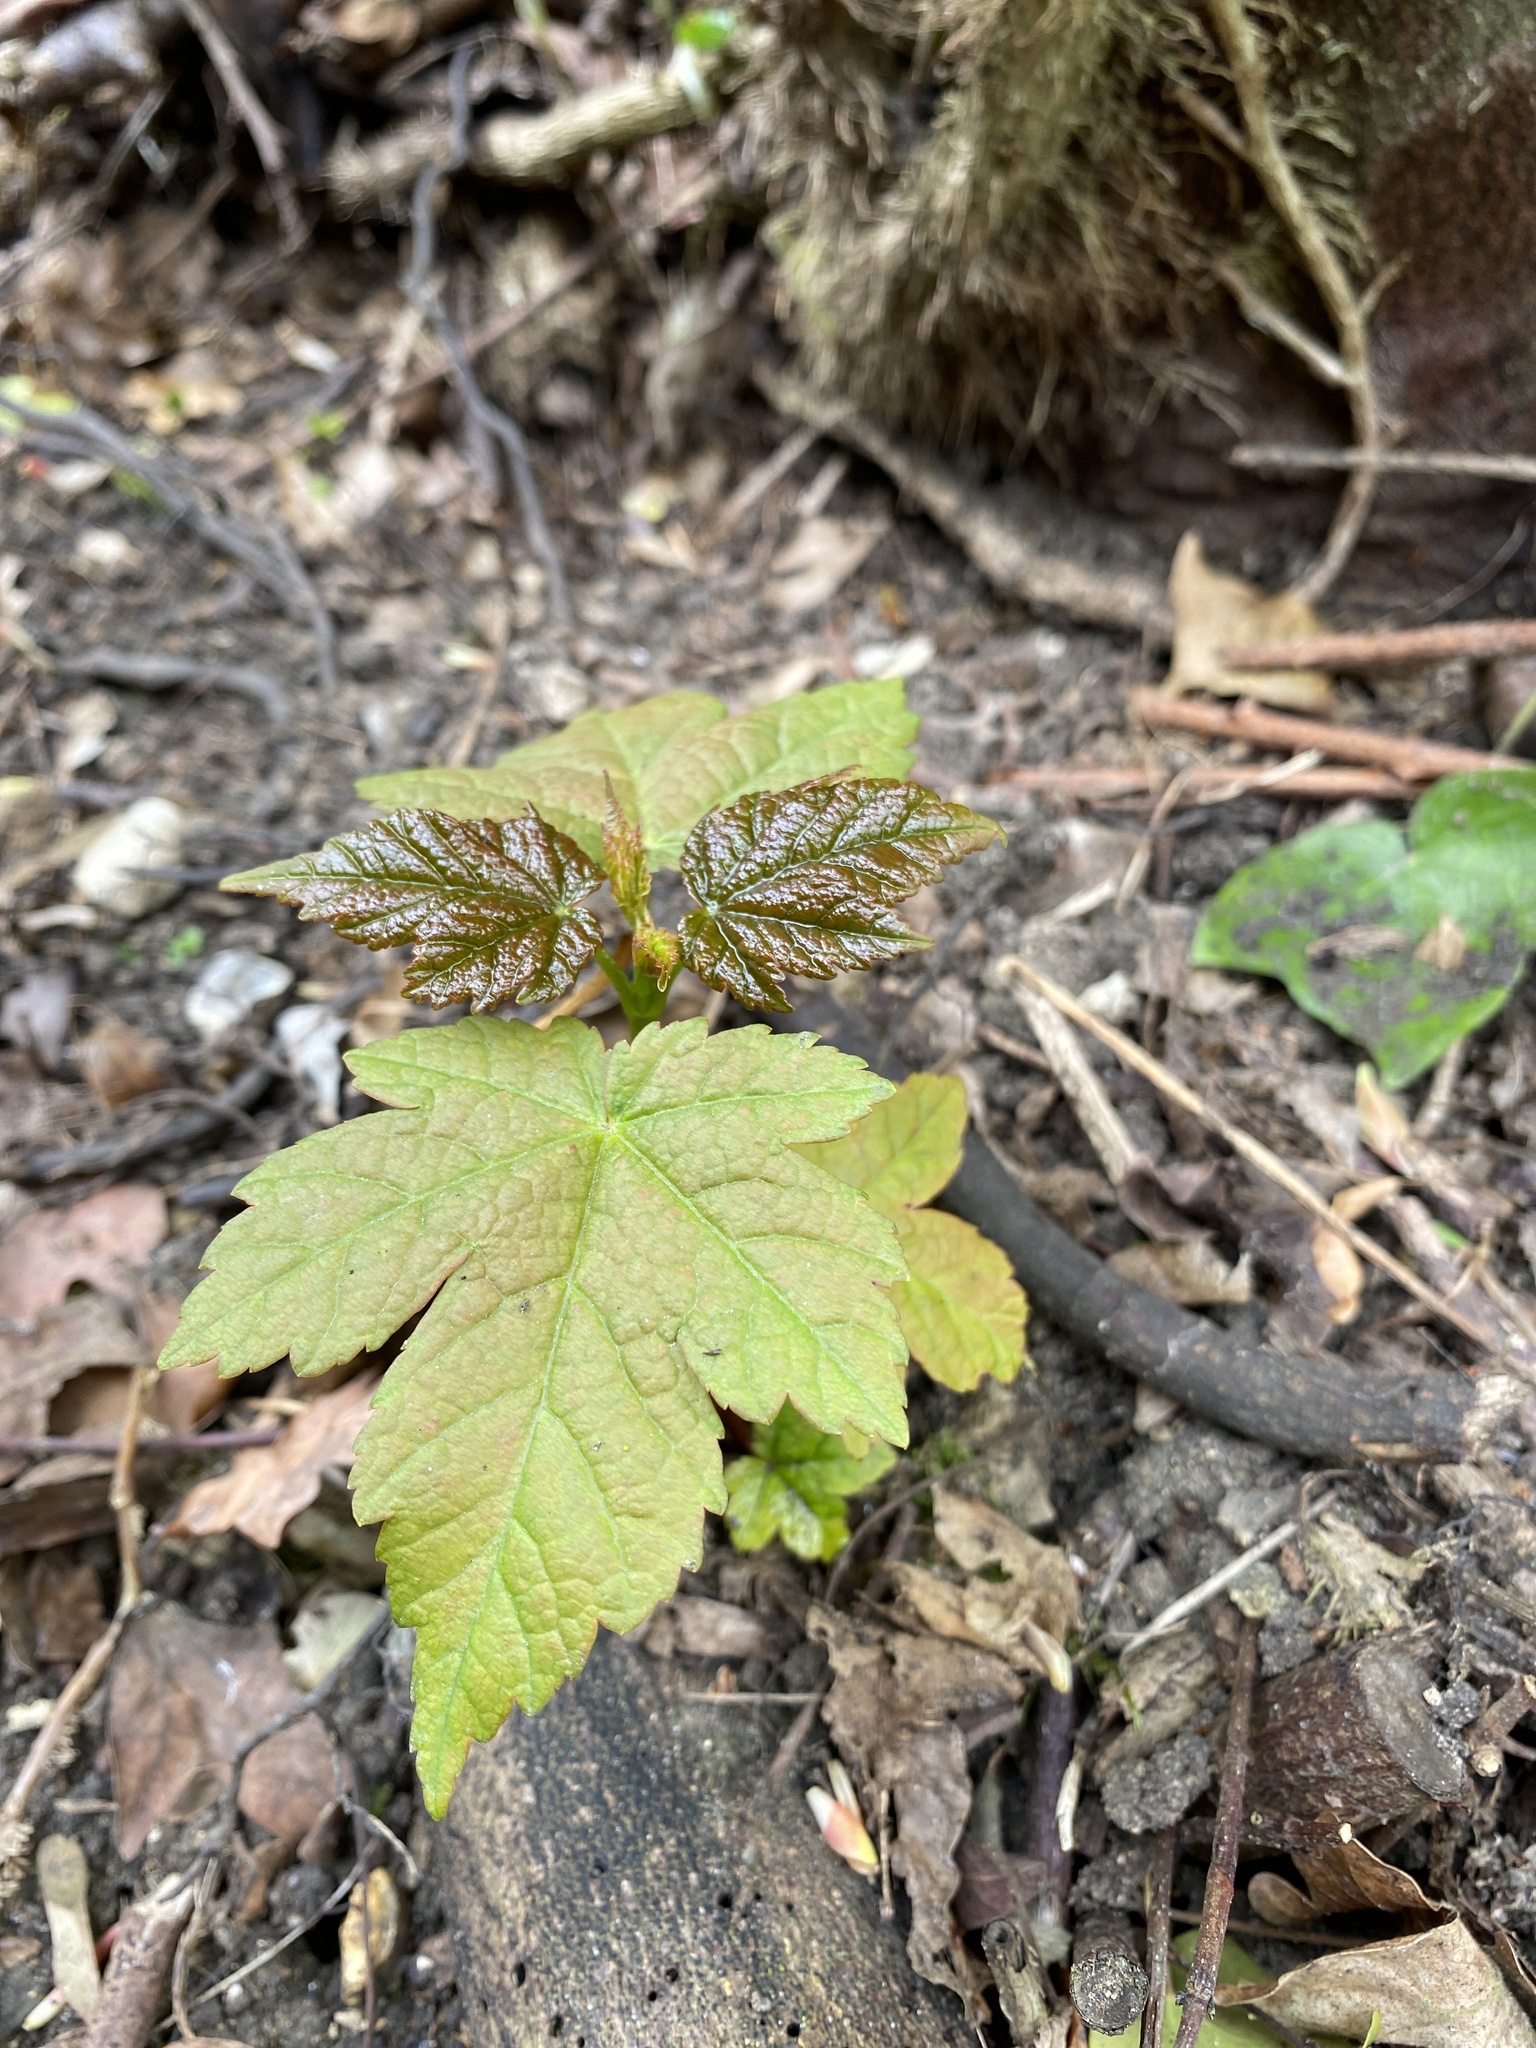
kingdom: Plantae
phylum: Tracheophyta
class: Magnoliopsida
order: Sapindales
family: Sapindaceae
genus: Acer
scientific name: Acer pseudoplatanus
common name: Sycamore
